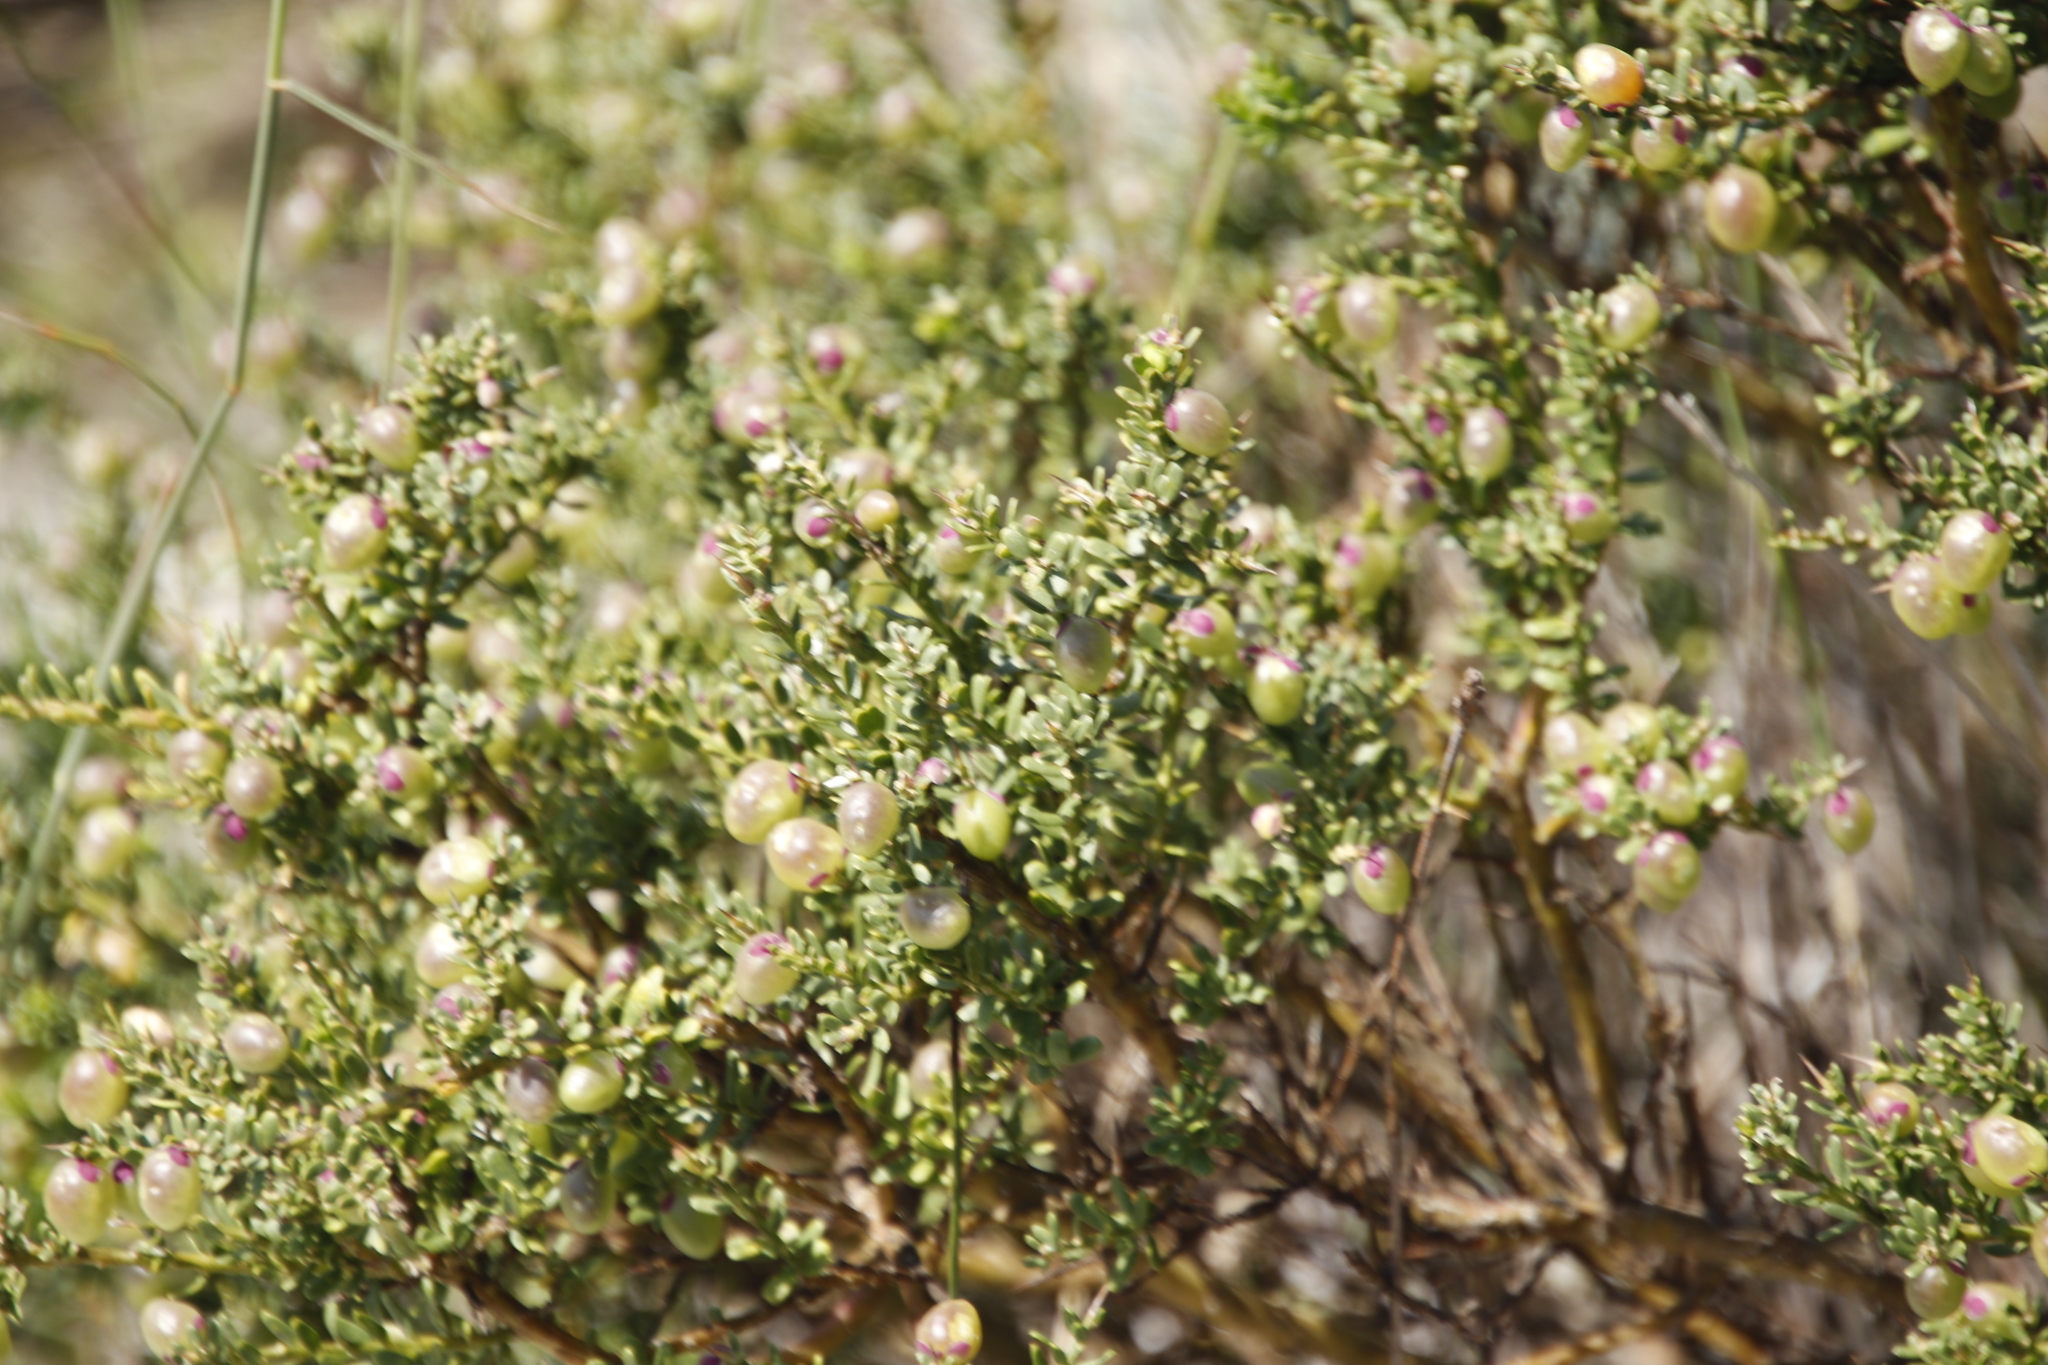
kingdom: Plantae
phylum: Tracheophyta
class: Magnoliopsida
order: Fabales
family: Polygalaceae
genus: Muraltia
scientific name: Muraltia spinosa
